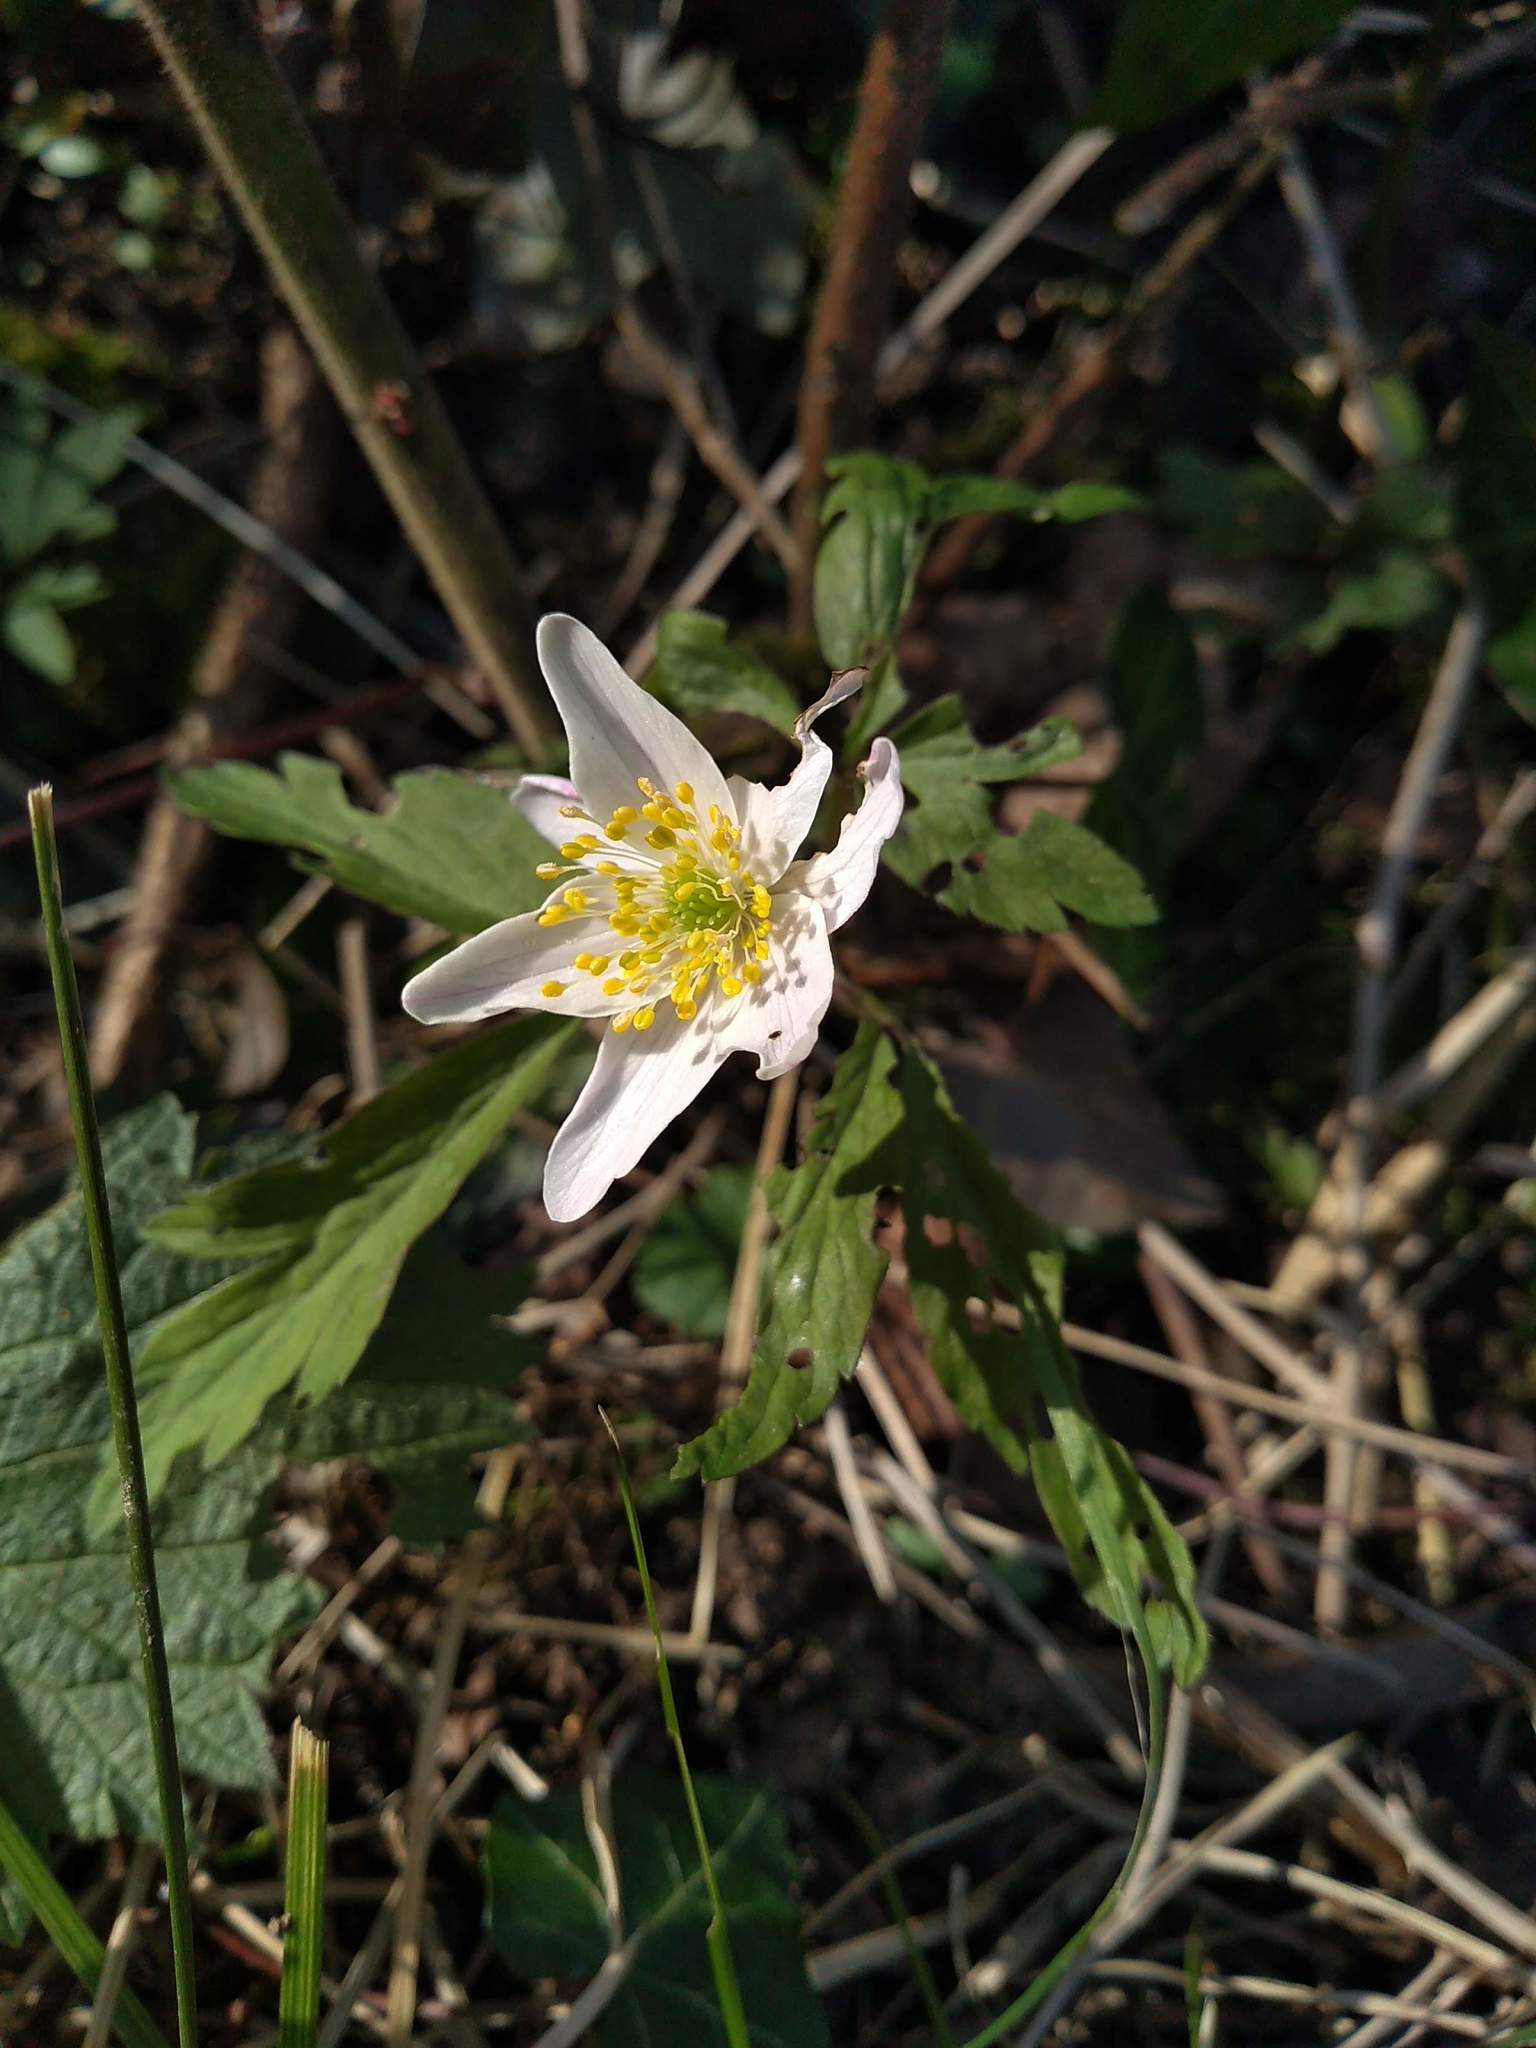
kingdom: Plantae
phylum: Tracheophyta
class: Magnoliopsida
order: Ranunculales
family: Ranunculaceae
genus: Anemone
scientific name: Anemone nemorosa
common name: Wood anemone
